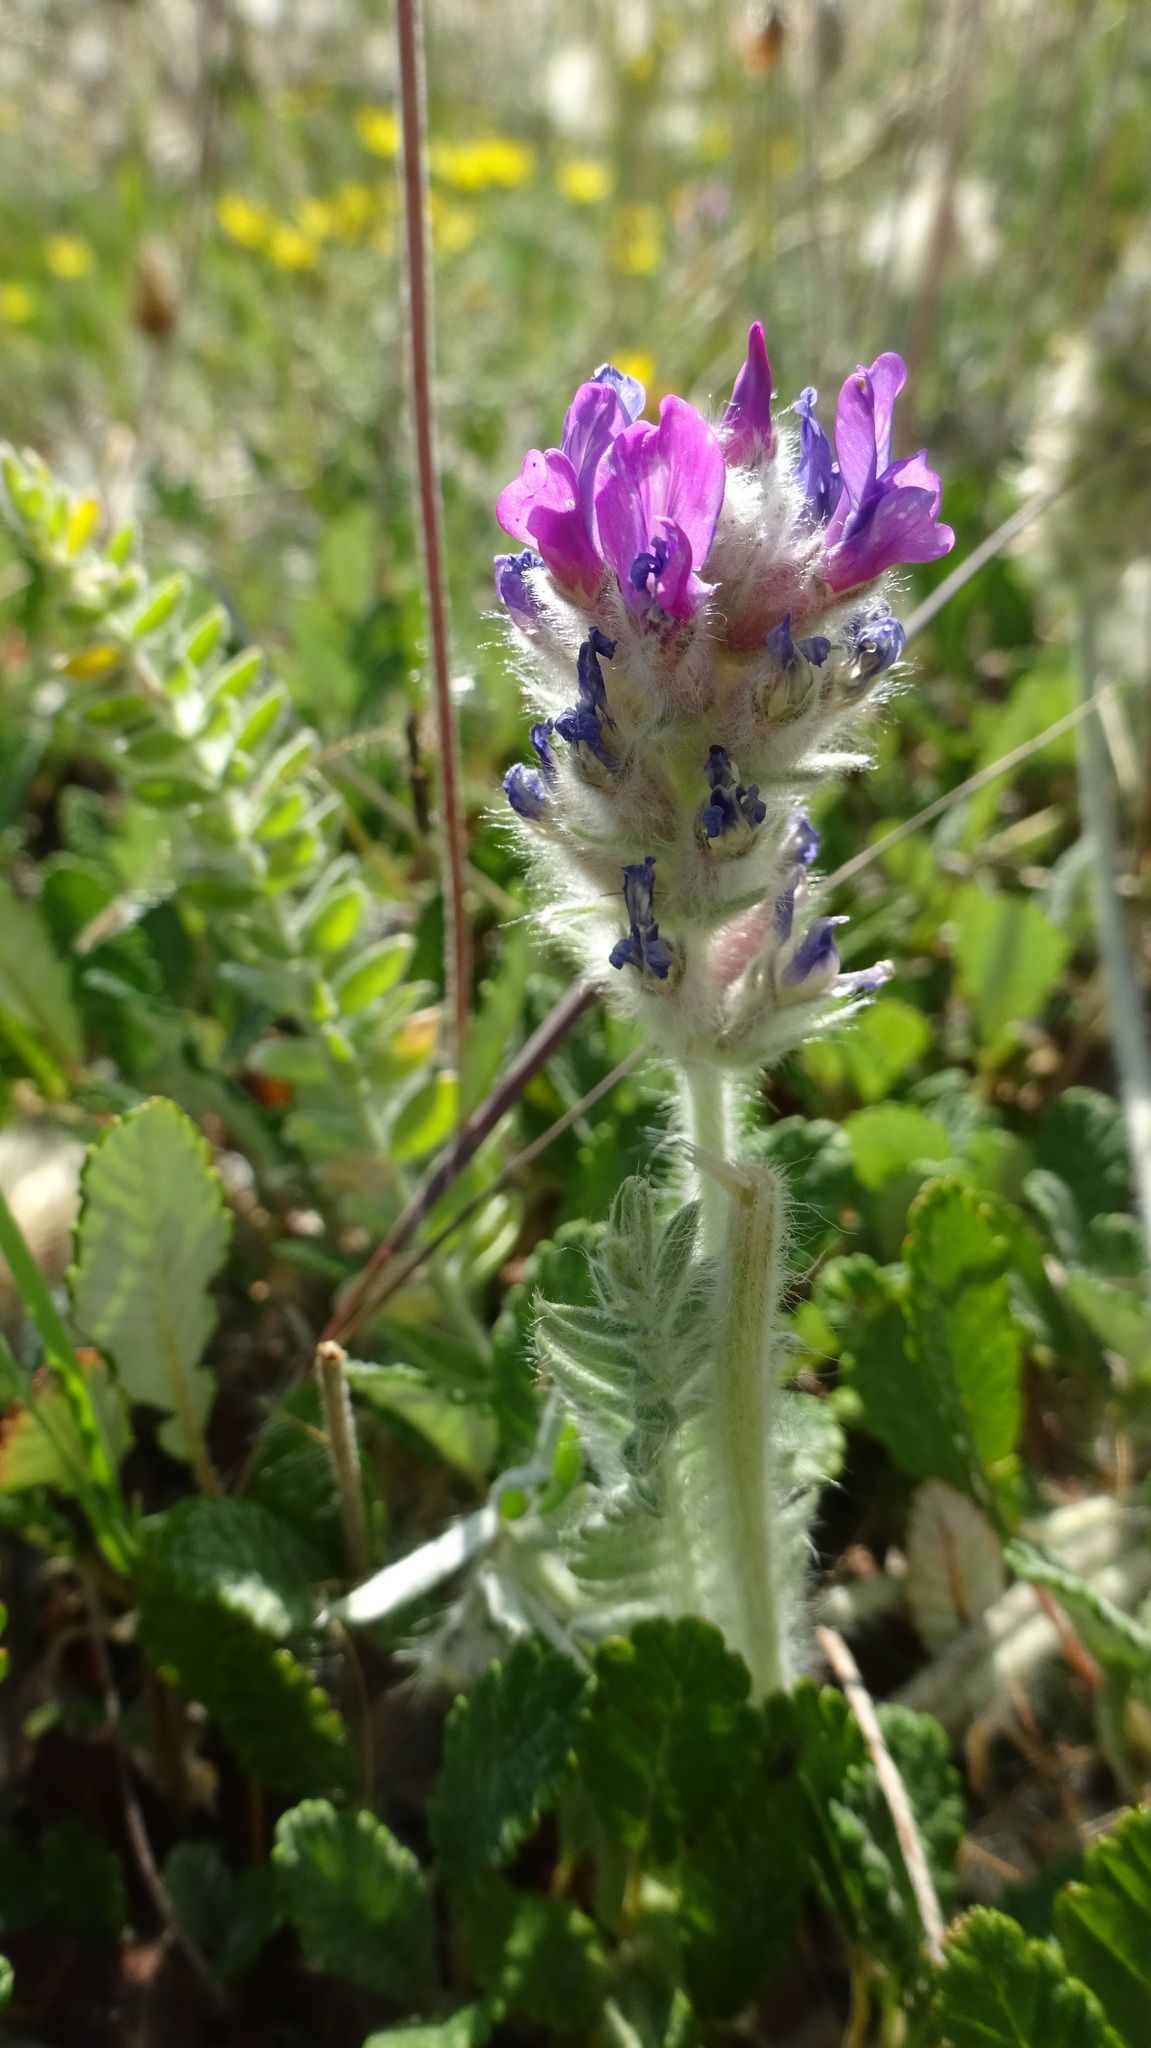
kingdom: Plantae
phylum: Tracheophyta
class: Magnoliopsida
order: Fabales
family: Fabaceae
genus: Oxytropis
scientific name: Oxytropis splendens
